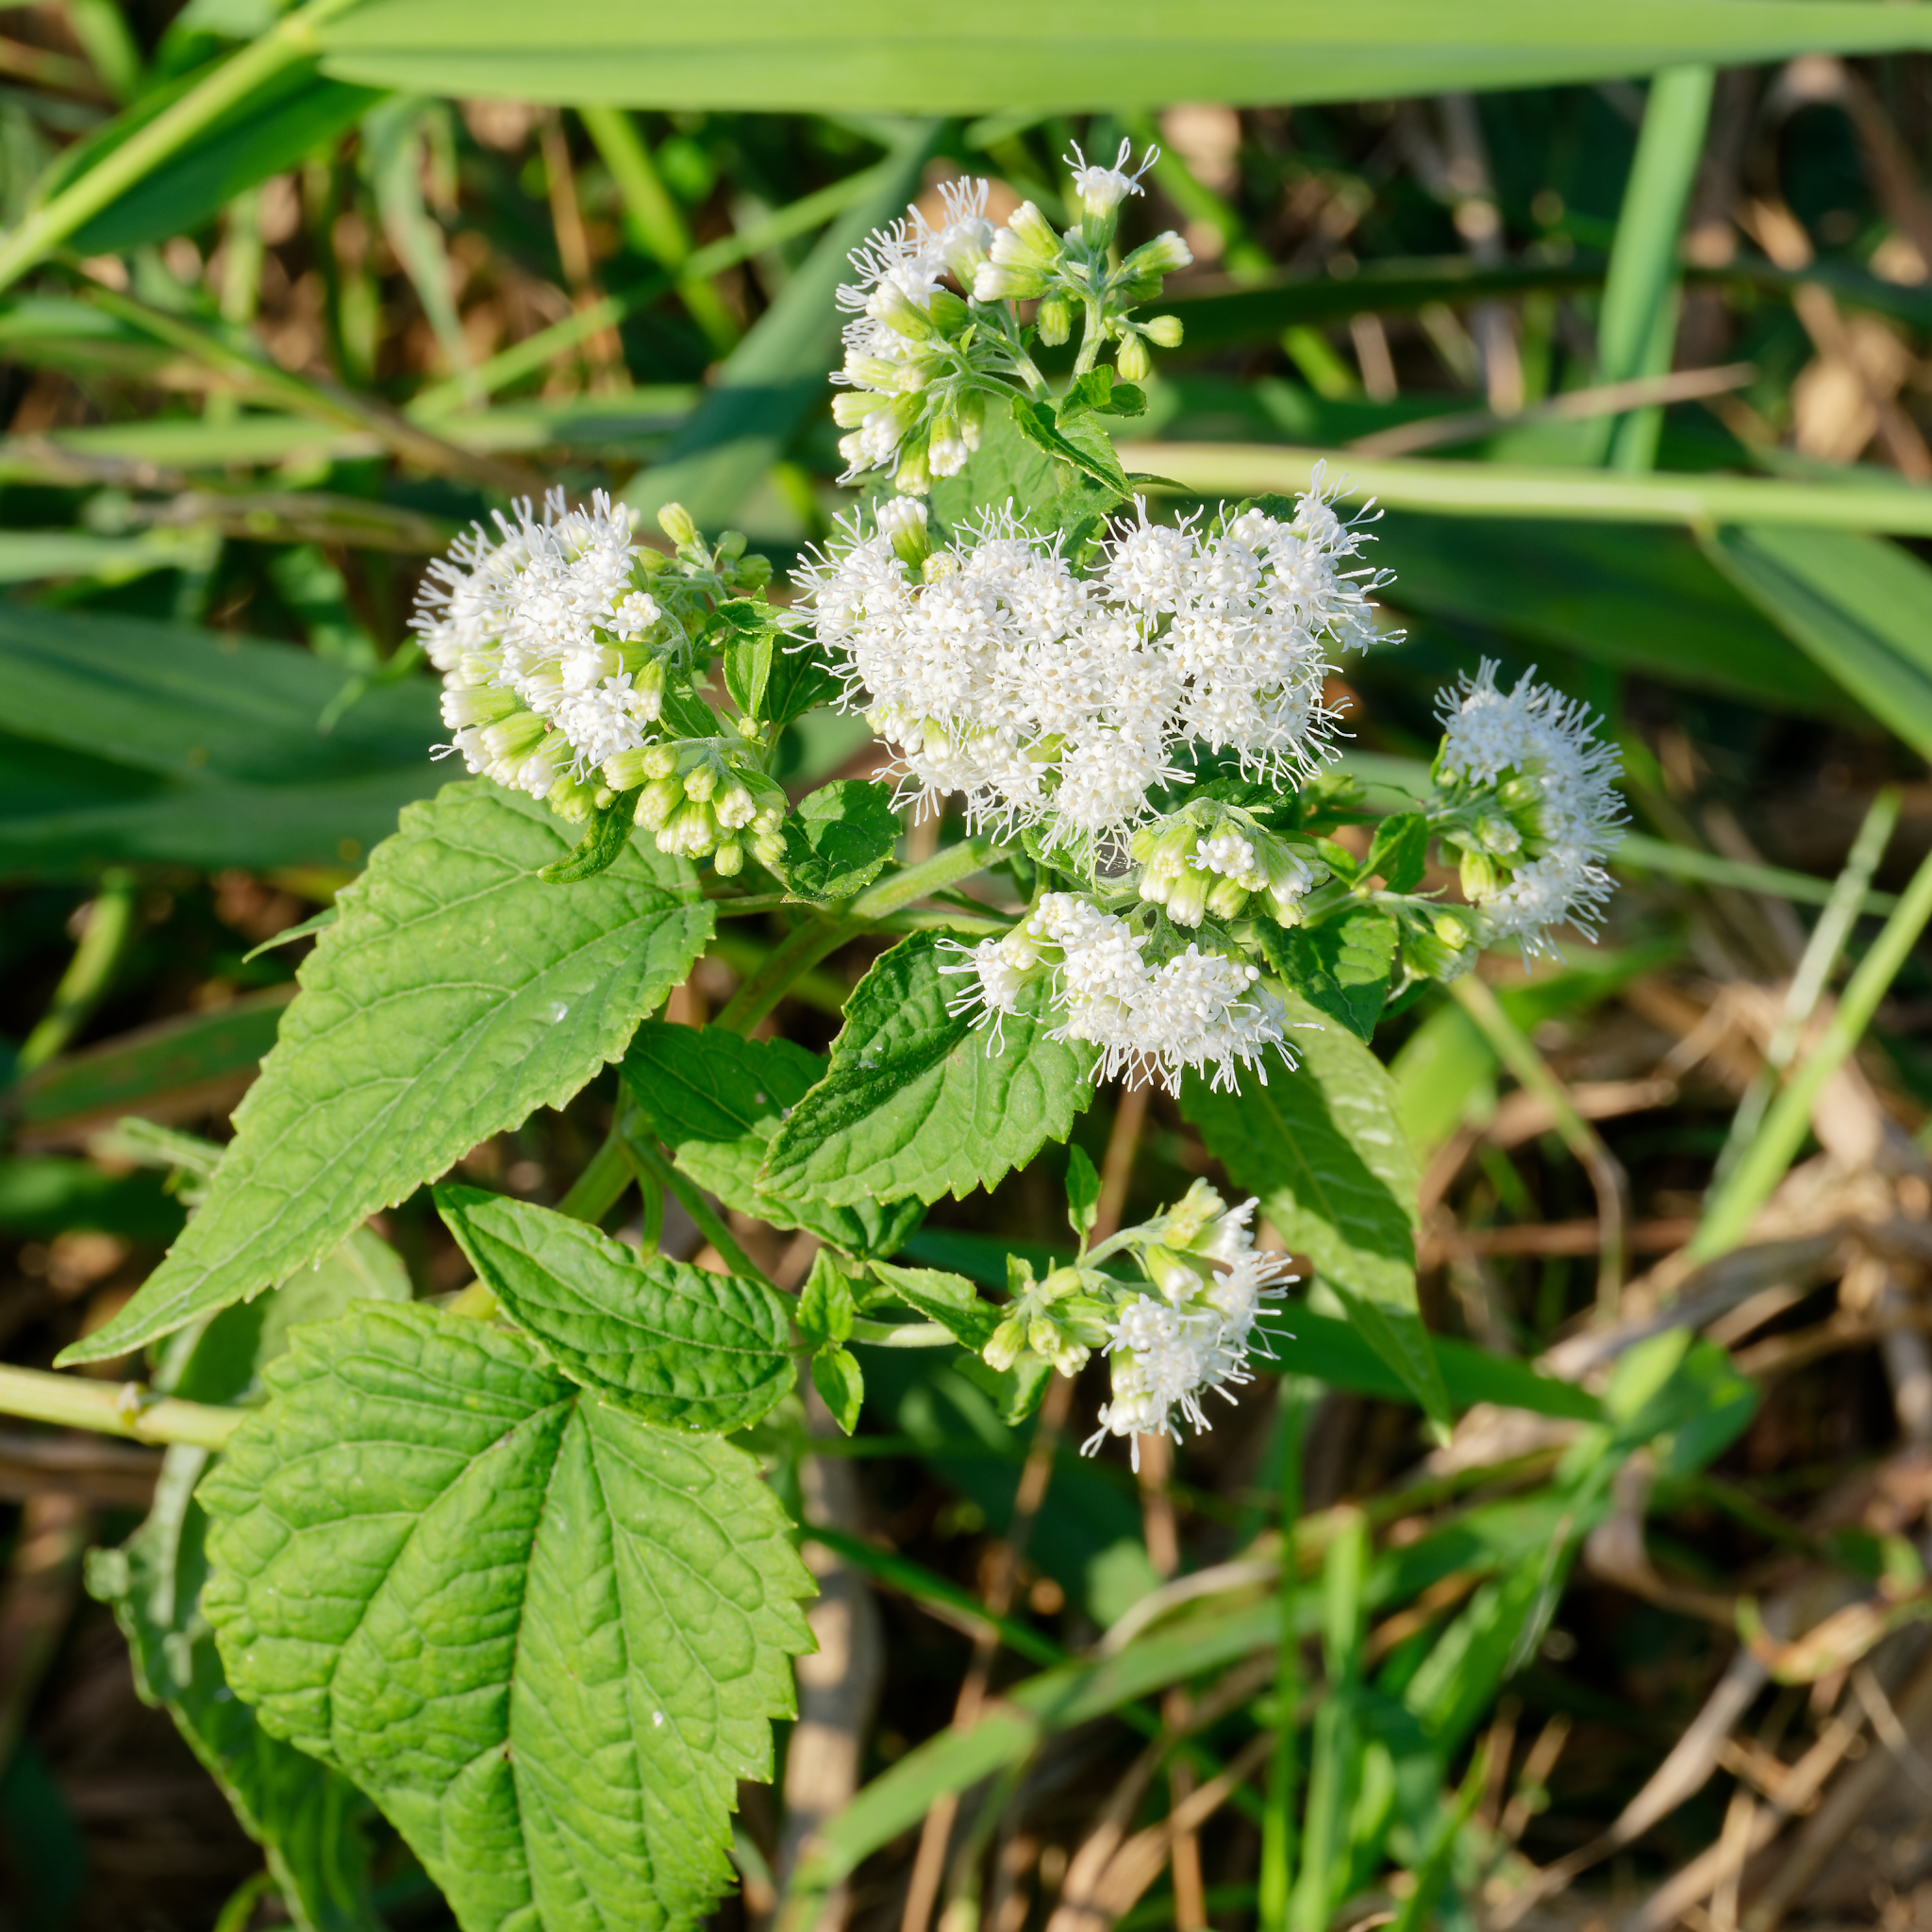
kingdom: Plantae
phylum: Tracheophyta
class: Magnoliopsida
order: Asterales
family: Asteraceae
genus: Ageratina
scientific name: Ageratina altissima
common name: White snakeroot
